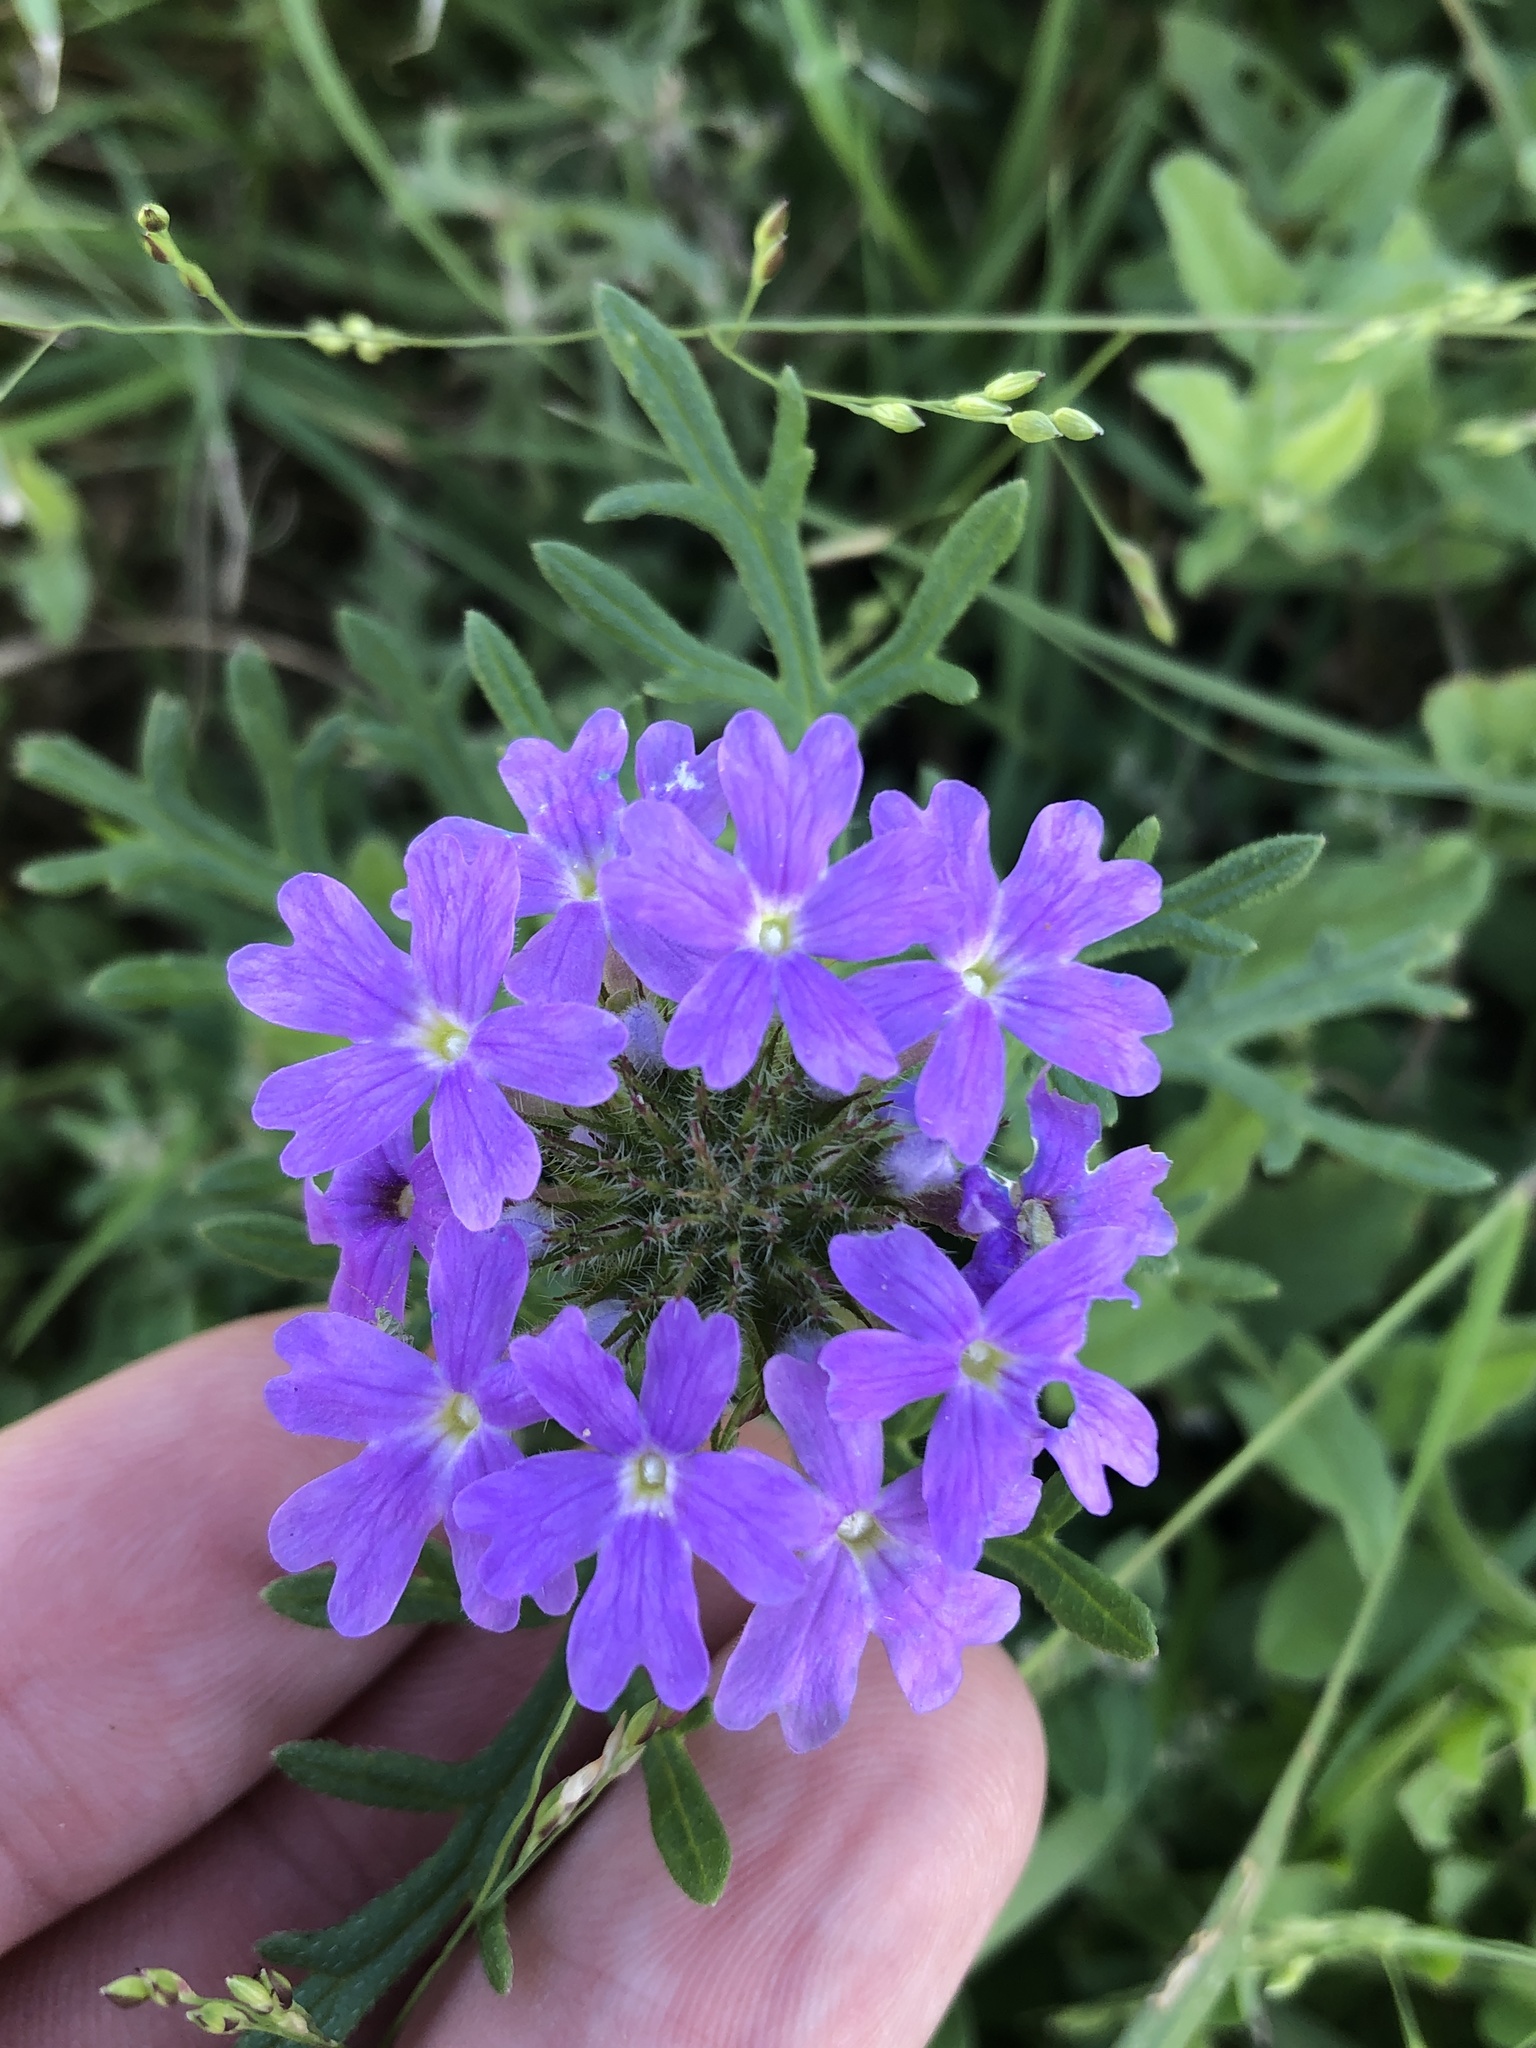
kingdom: Plantae
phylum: Tracheophyta
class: Magnoliopsida
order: Lamiales
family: Verbenaceae
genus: Verbena
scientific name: Verbena bipinnatifida
